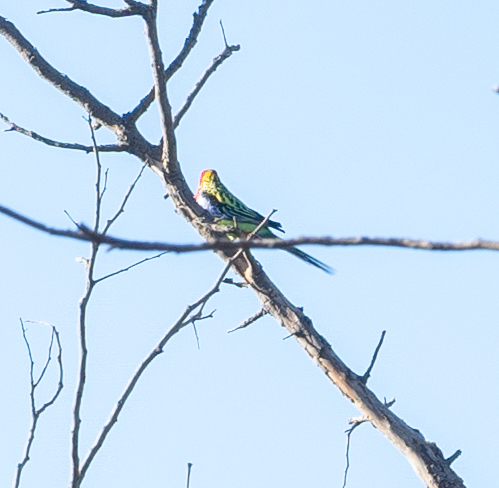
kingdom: Animalia
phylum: Chordata
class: Aves
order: Psittaciformes
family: Psittacidae
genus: Platycercus
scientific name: Platycercus eximius
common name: Eastern rosella
